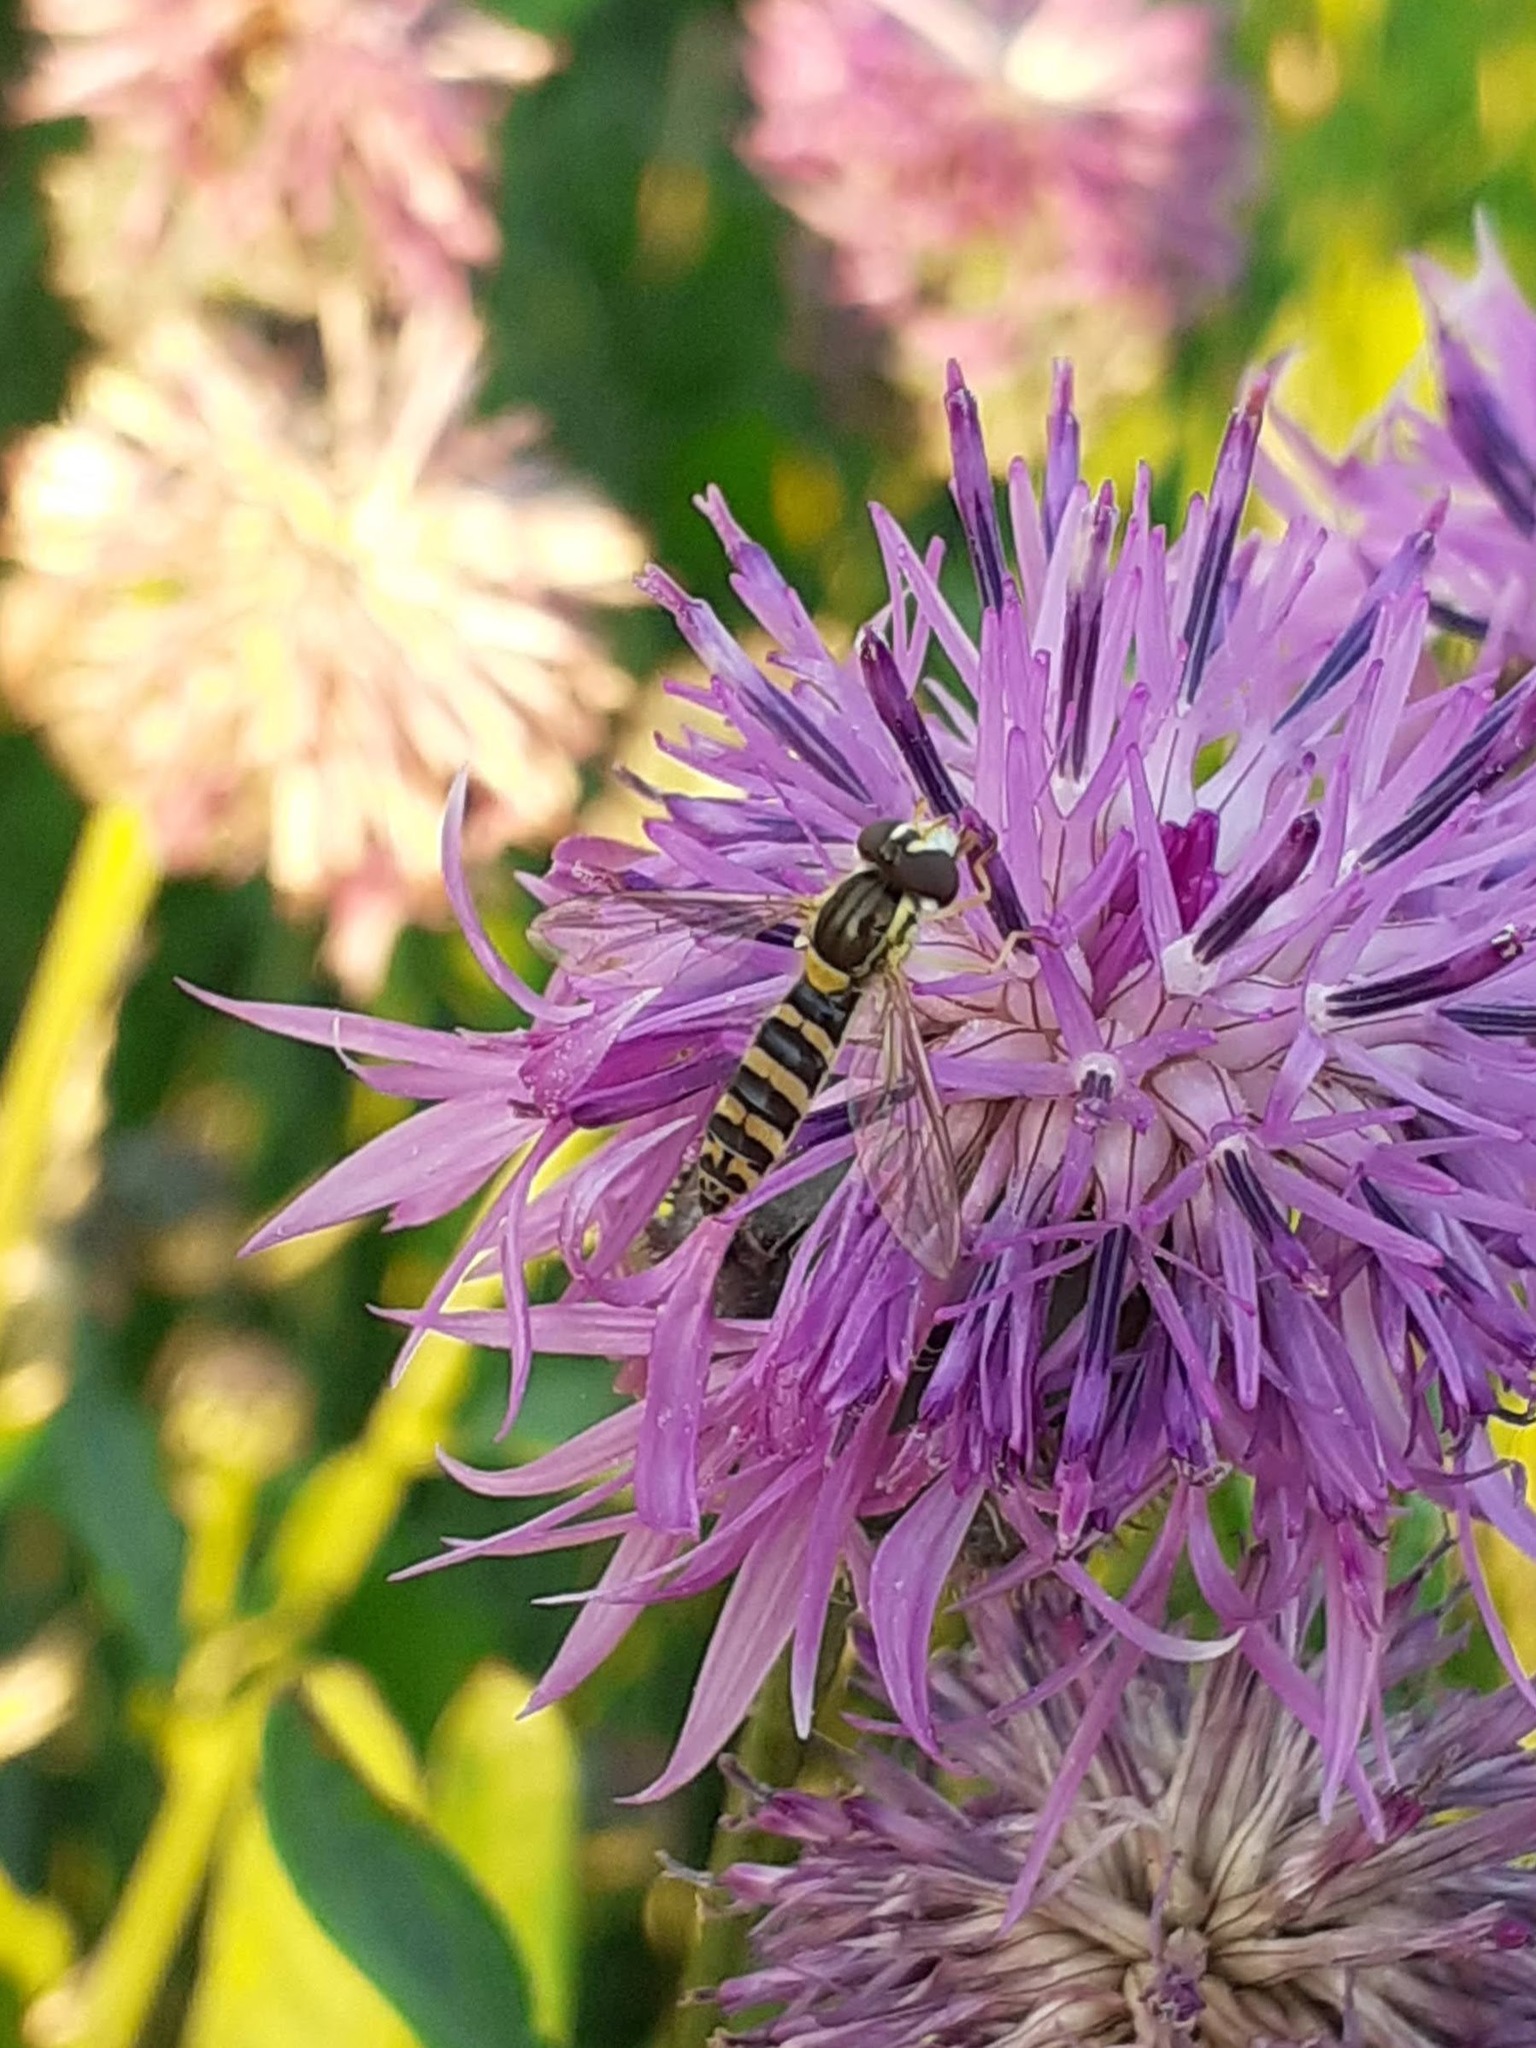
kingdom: Animalia
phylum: Arthropoda
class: Insecta
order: Diptera
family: Syrphidae
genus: Sphaerophoria
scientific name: Sphaerophoria
